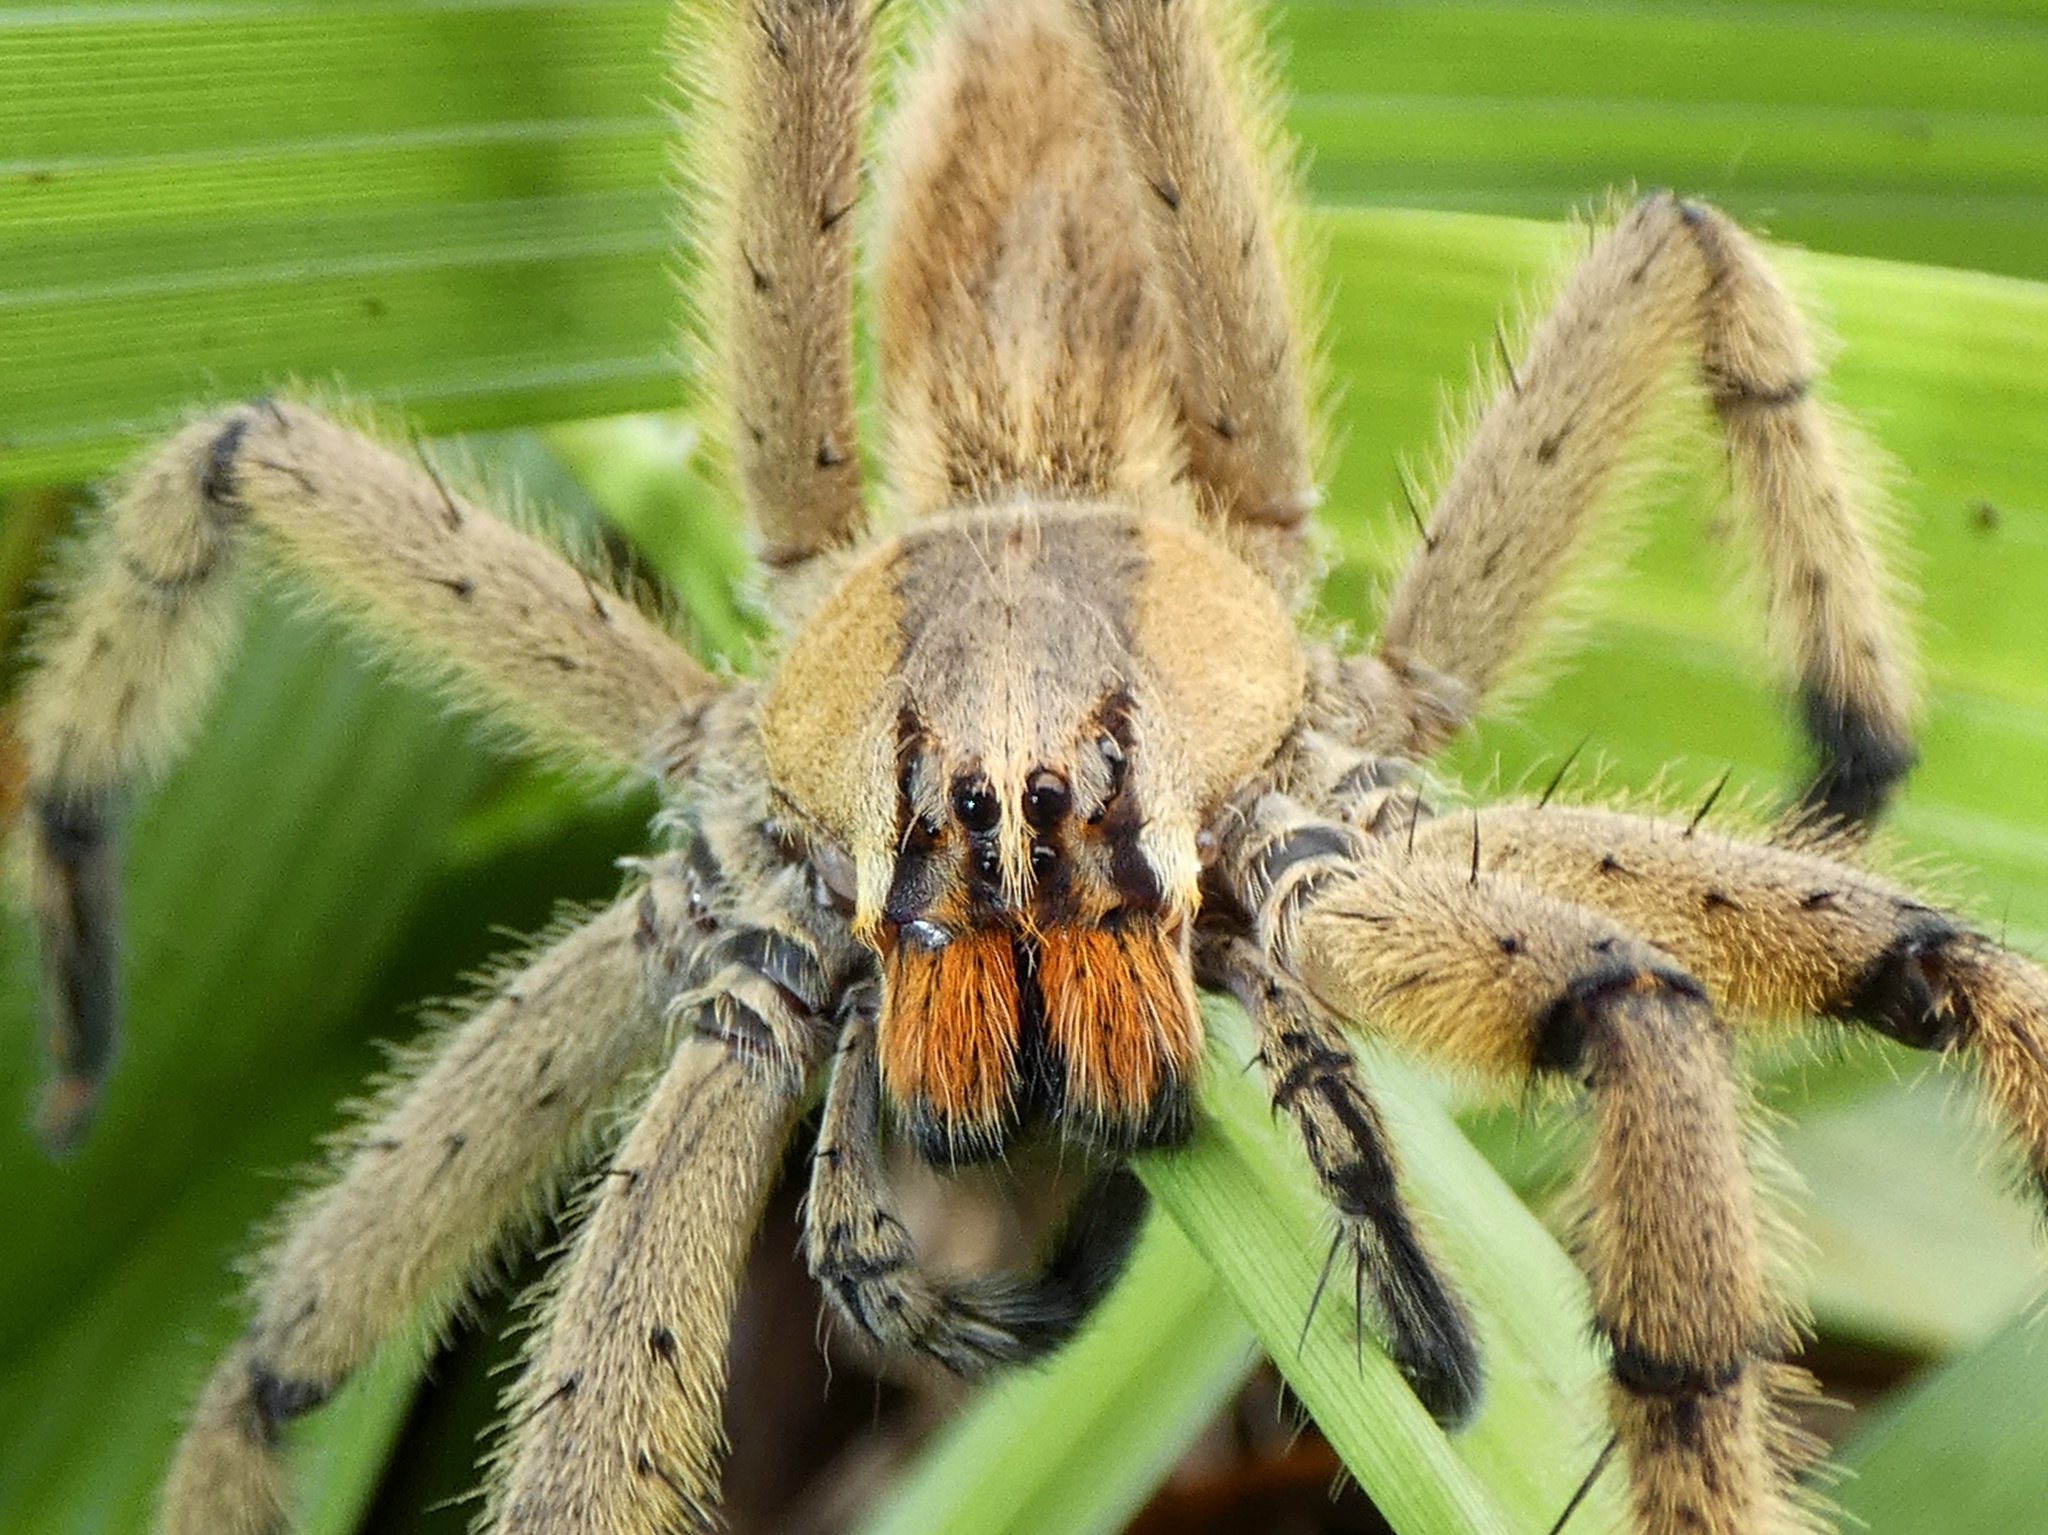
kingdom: Animalia
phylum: Arthropoda
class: Arachnida
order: Araneae
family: Trechaleidae
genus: Cupiennius
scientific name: Cupiennius getazi
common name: Wandering spiders
